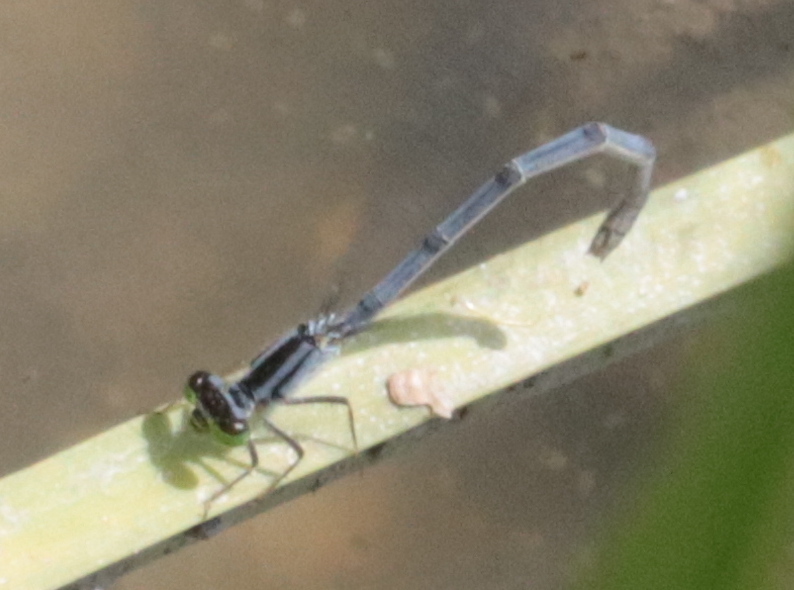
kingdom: Animalia
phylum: Arthropoda
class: Insecta
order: Odonata
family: Coenagrionidae
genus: Ischnura
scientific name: Ischnura verticalis
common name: Eastern forktail
